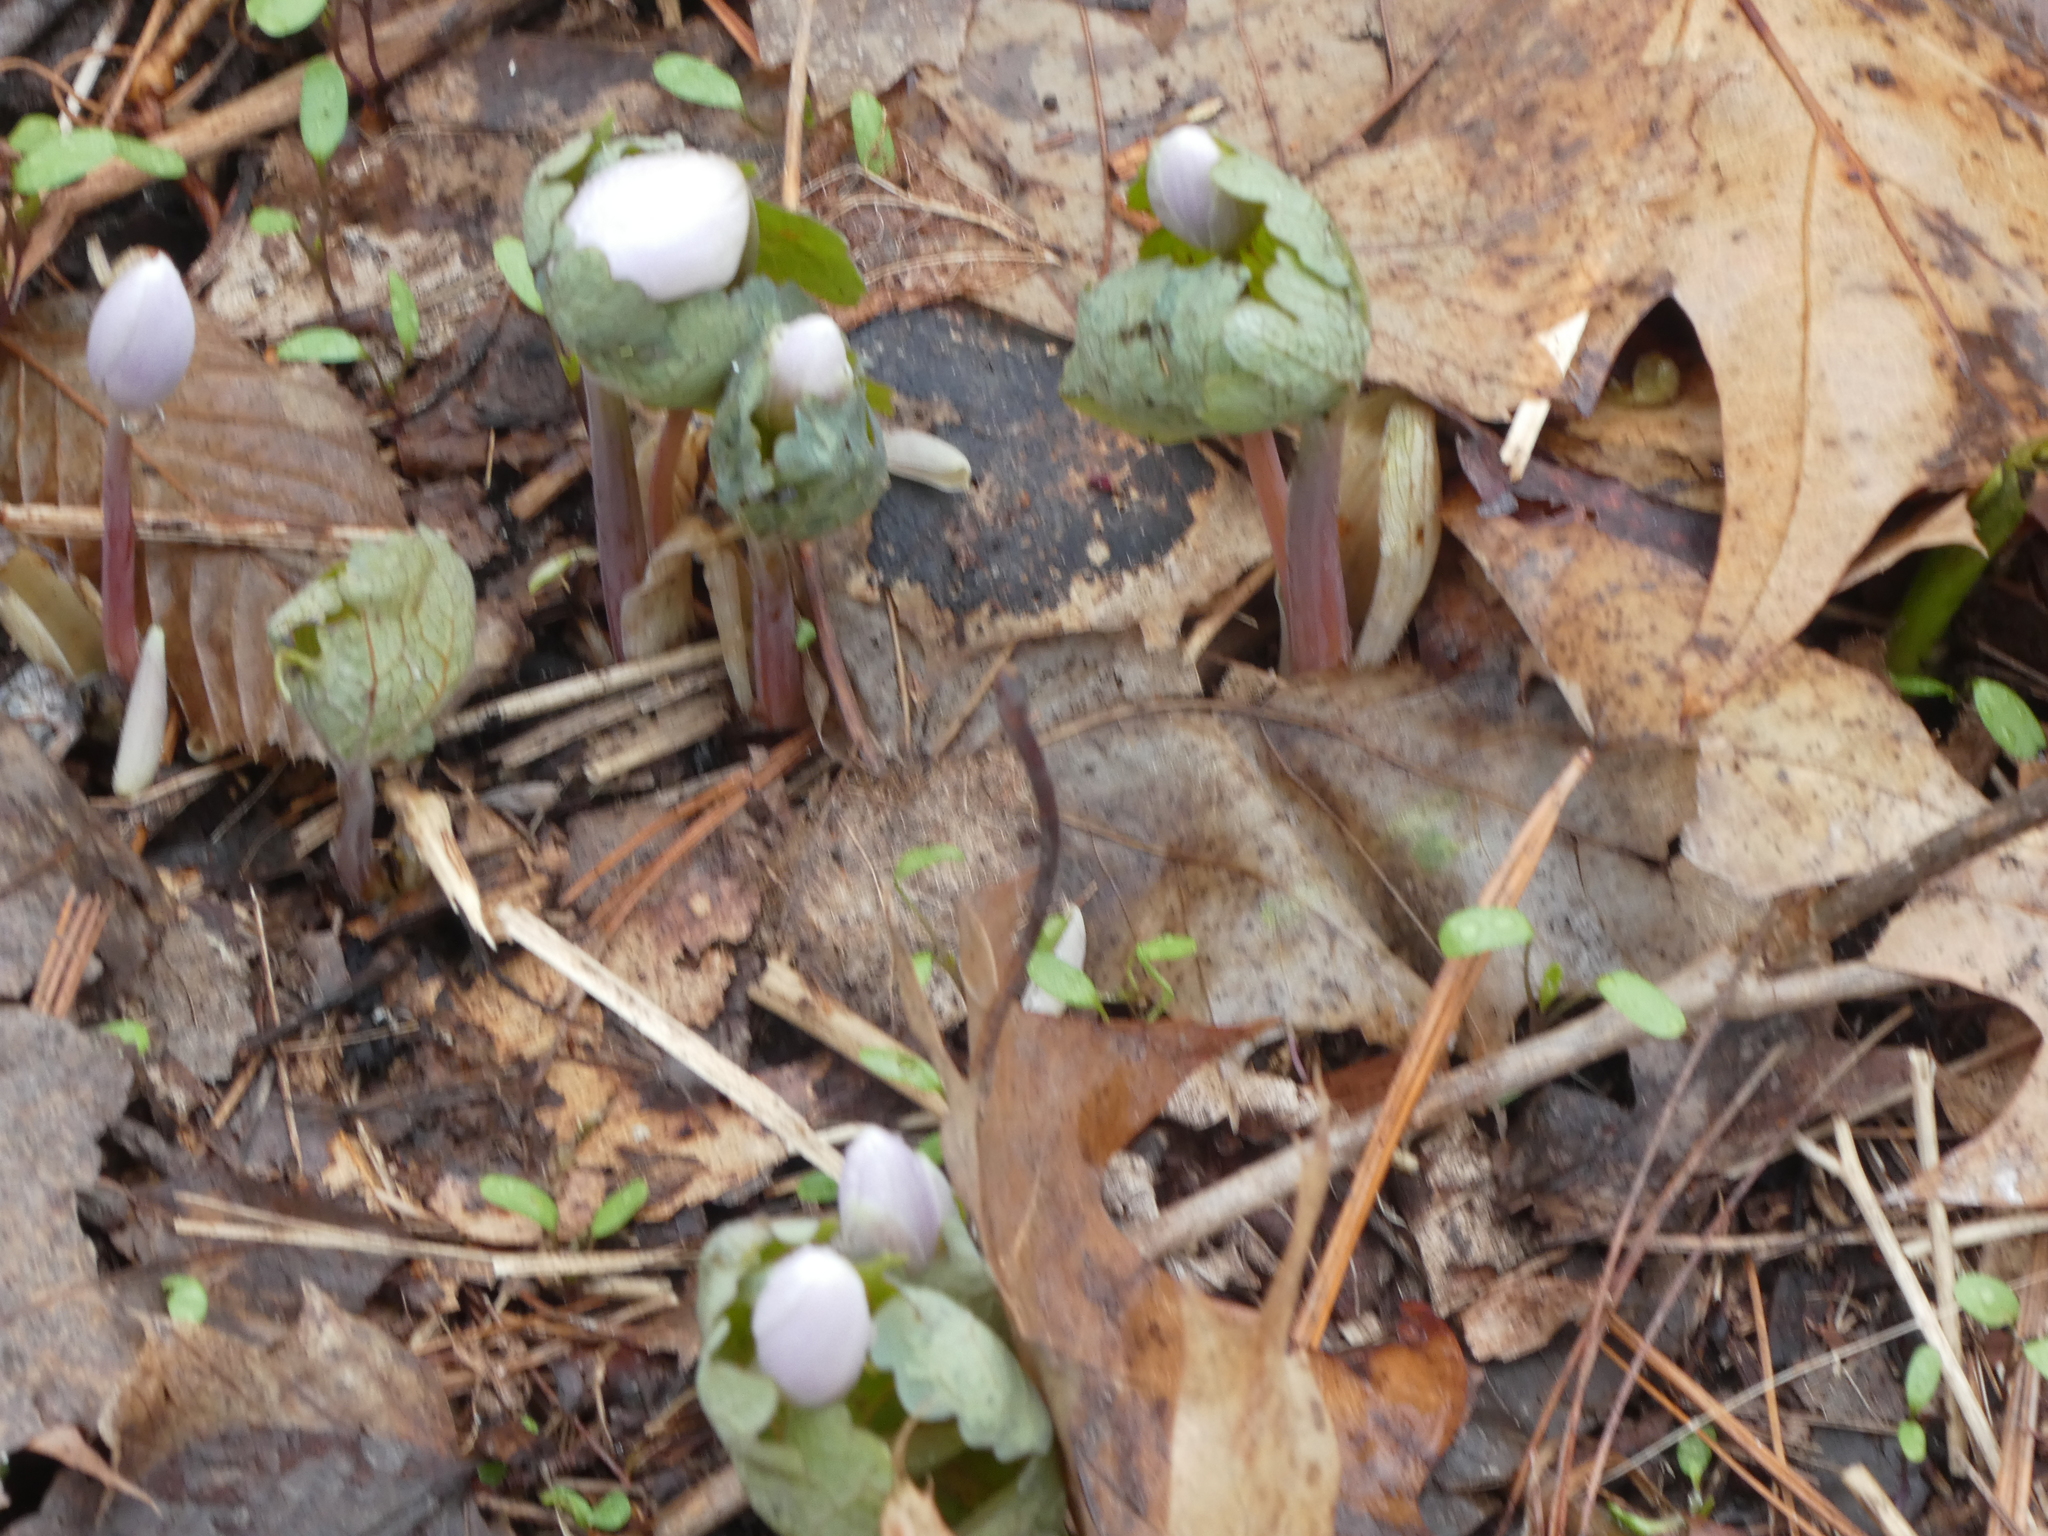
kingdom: Plantae
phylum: Tracheophyta
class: Magnoliopsida
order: Ranunculales
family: Papaveraceae
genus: Sanguinaria
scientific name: Sanguinaria canadensis
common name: Bloodroot
